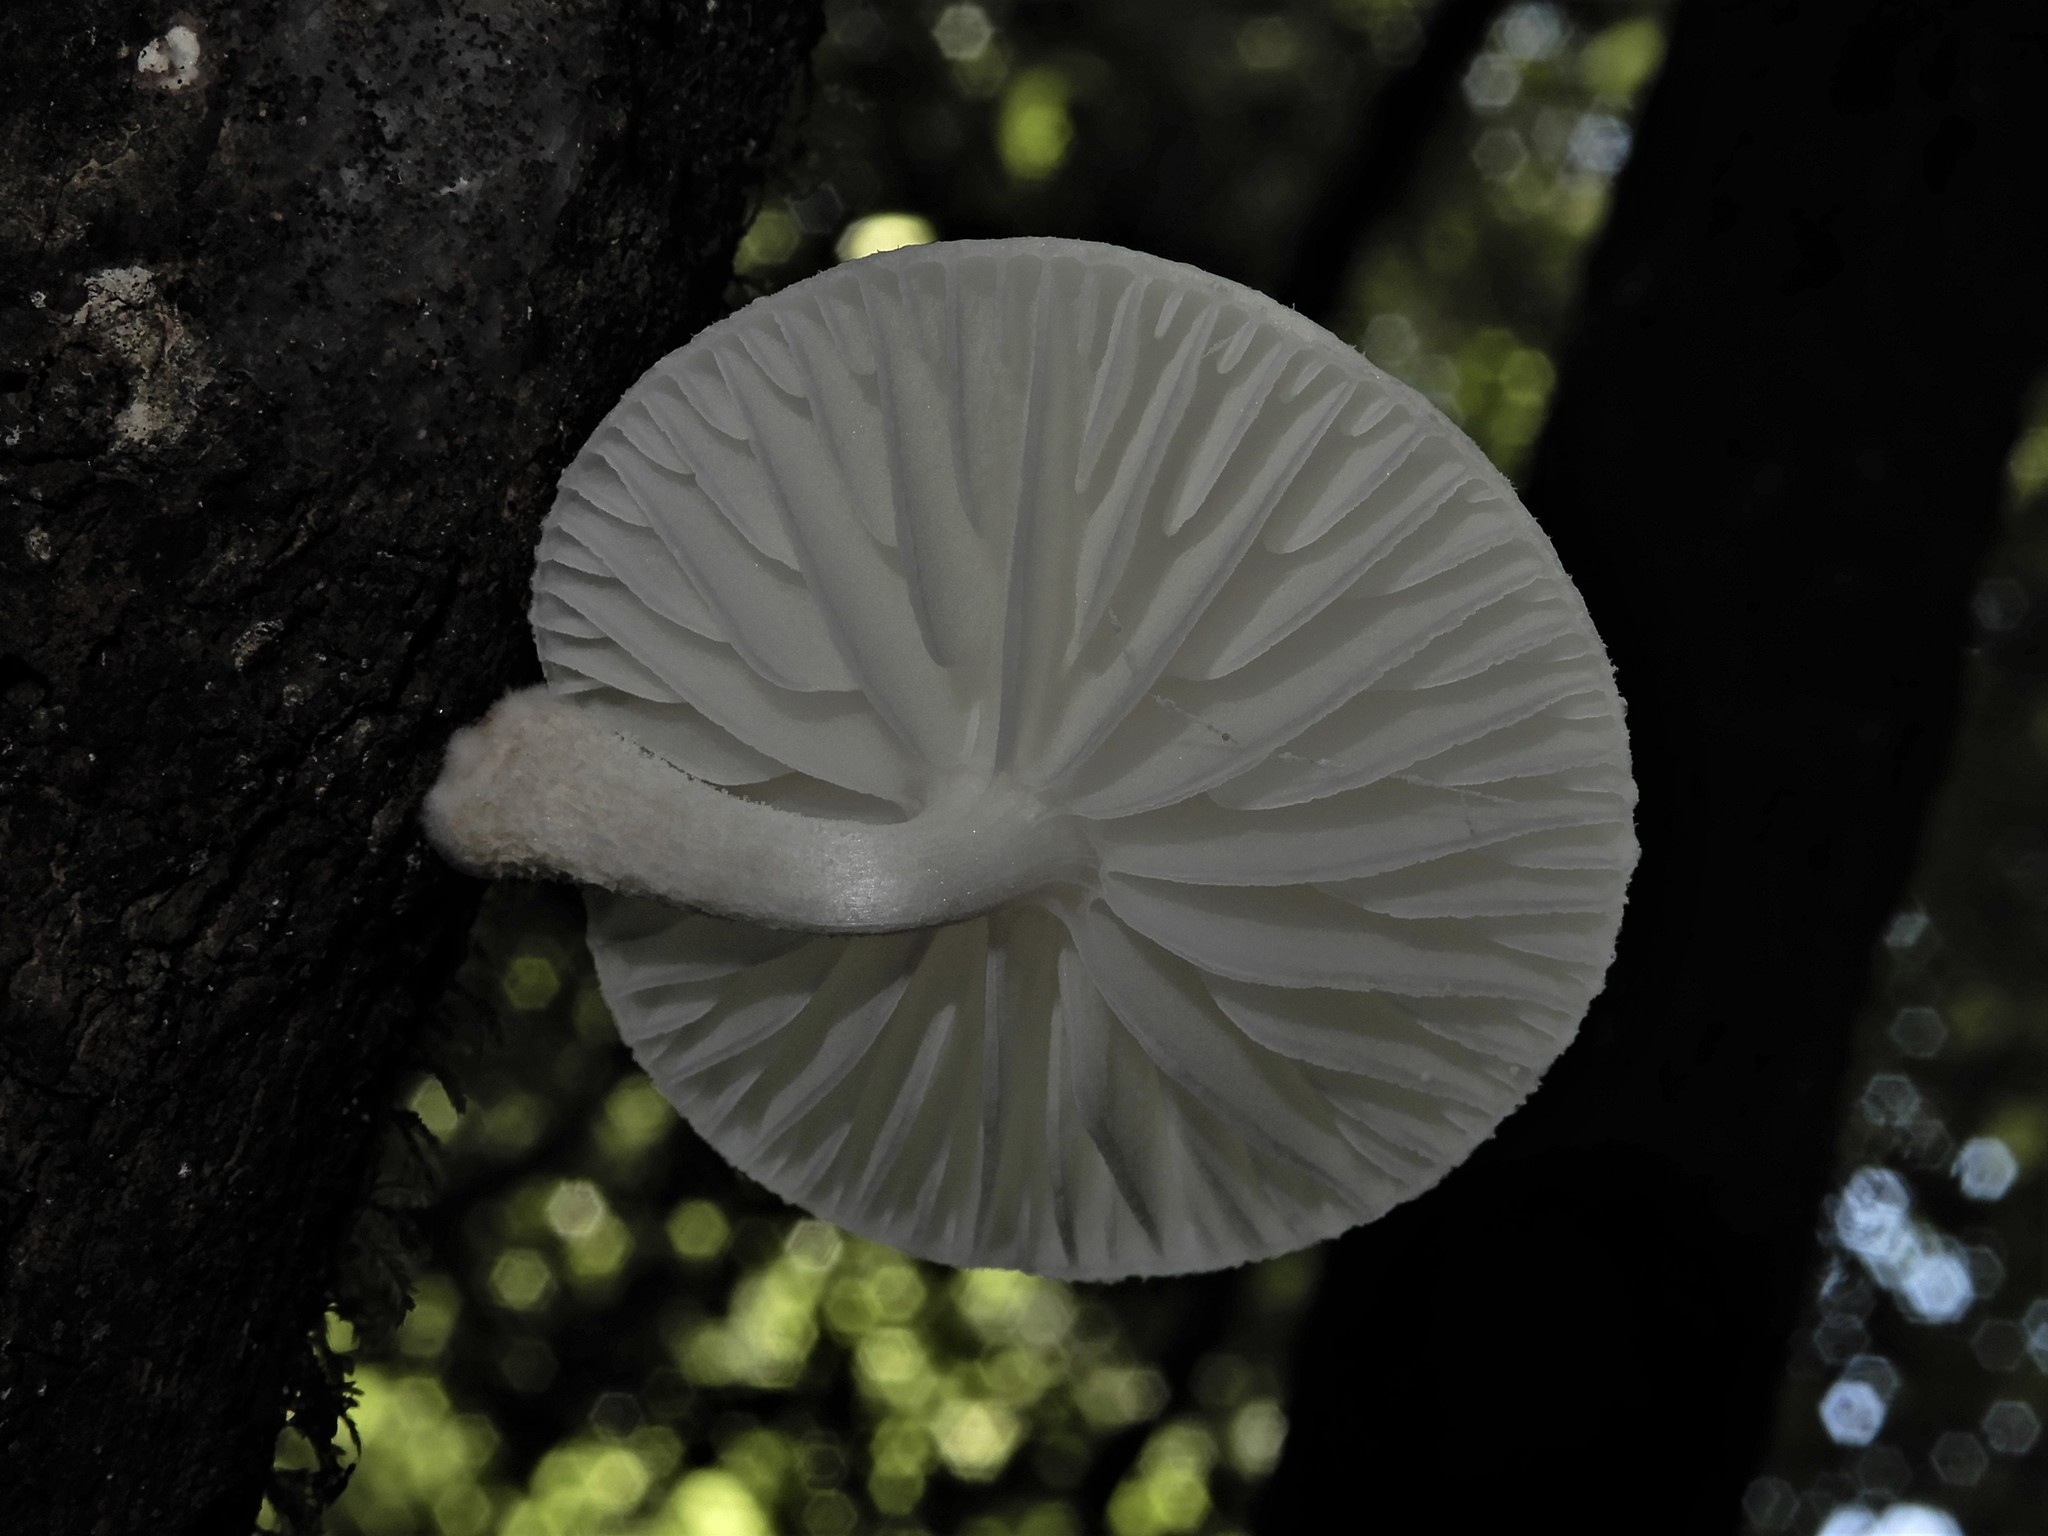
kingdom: Fungi
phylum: Basidiomycota
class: Agaricomycetes
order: Agaricales
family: Physalacriaceae
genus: Oudemansiella
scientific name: Oudemansiella australis
